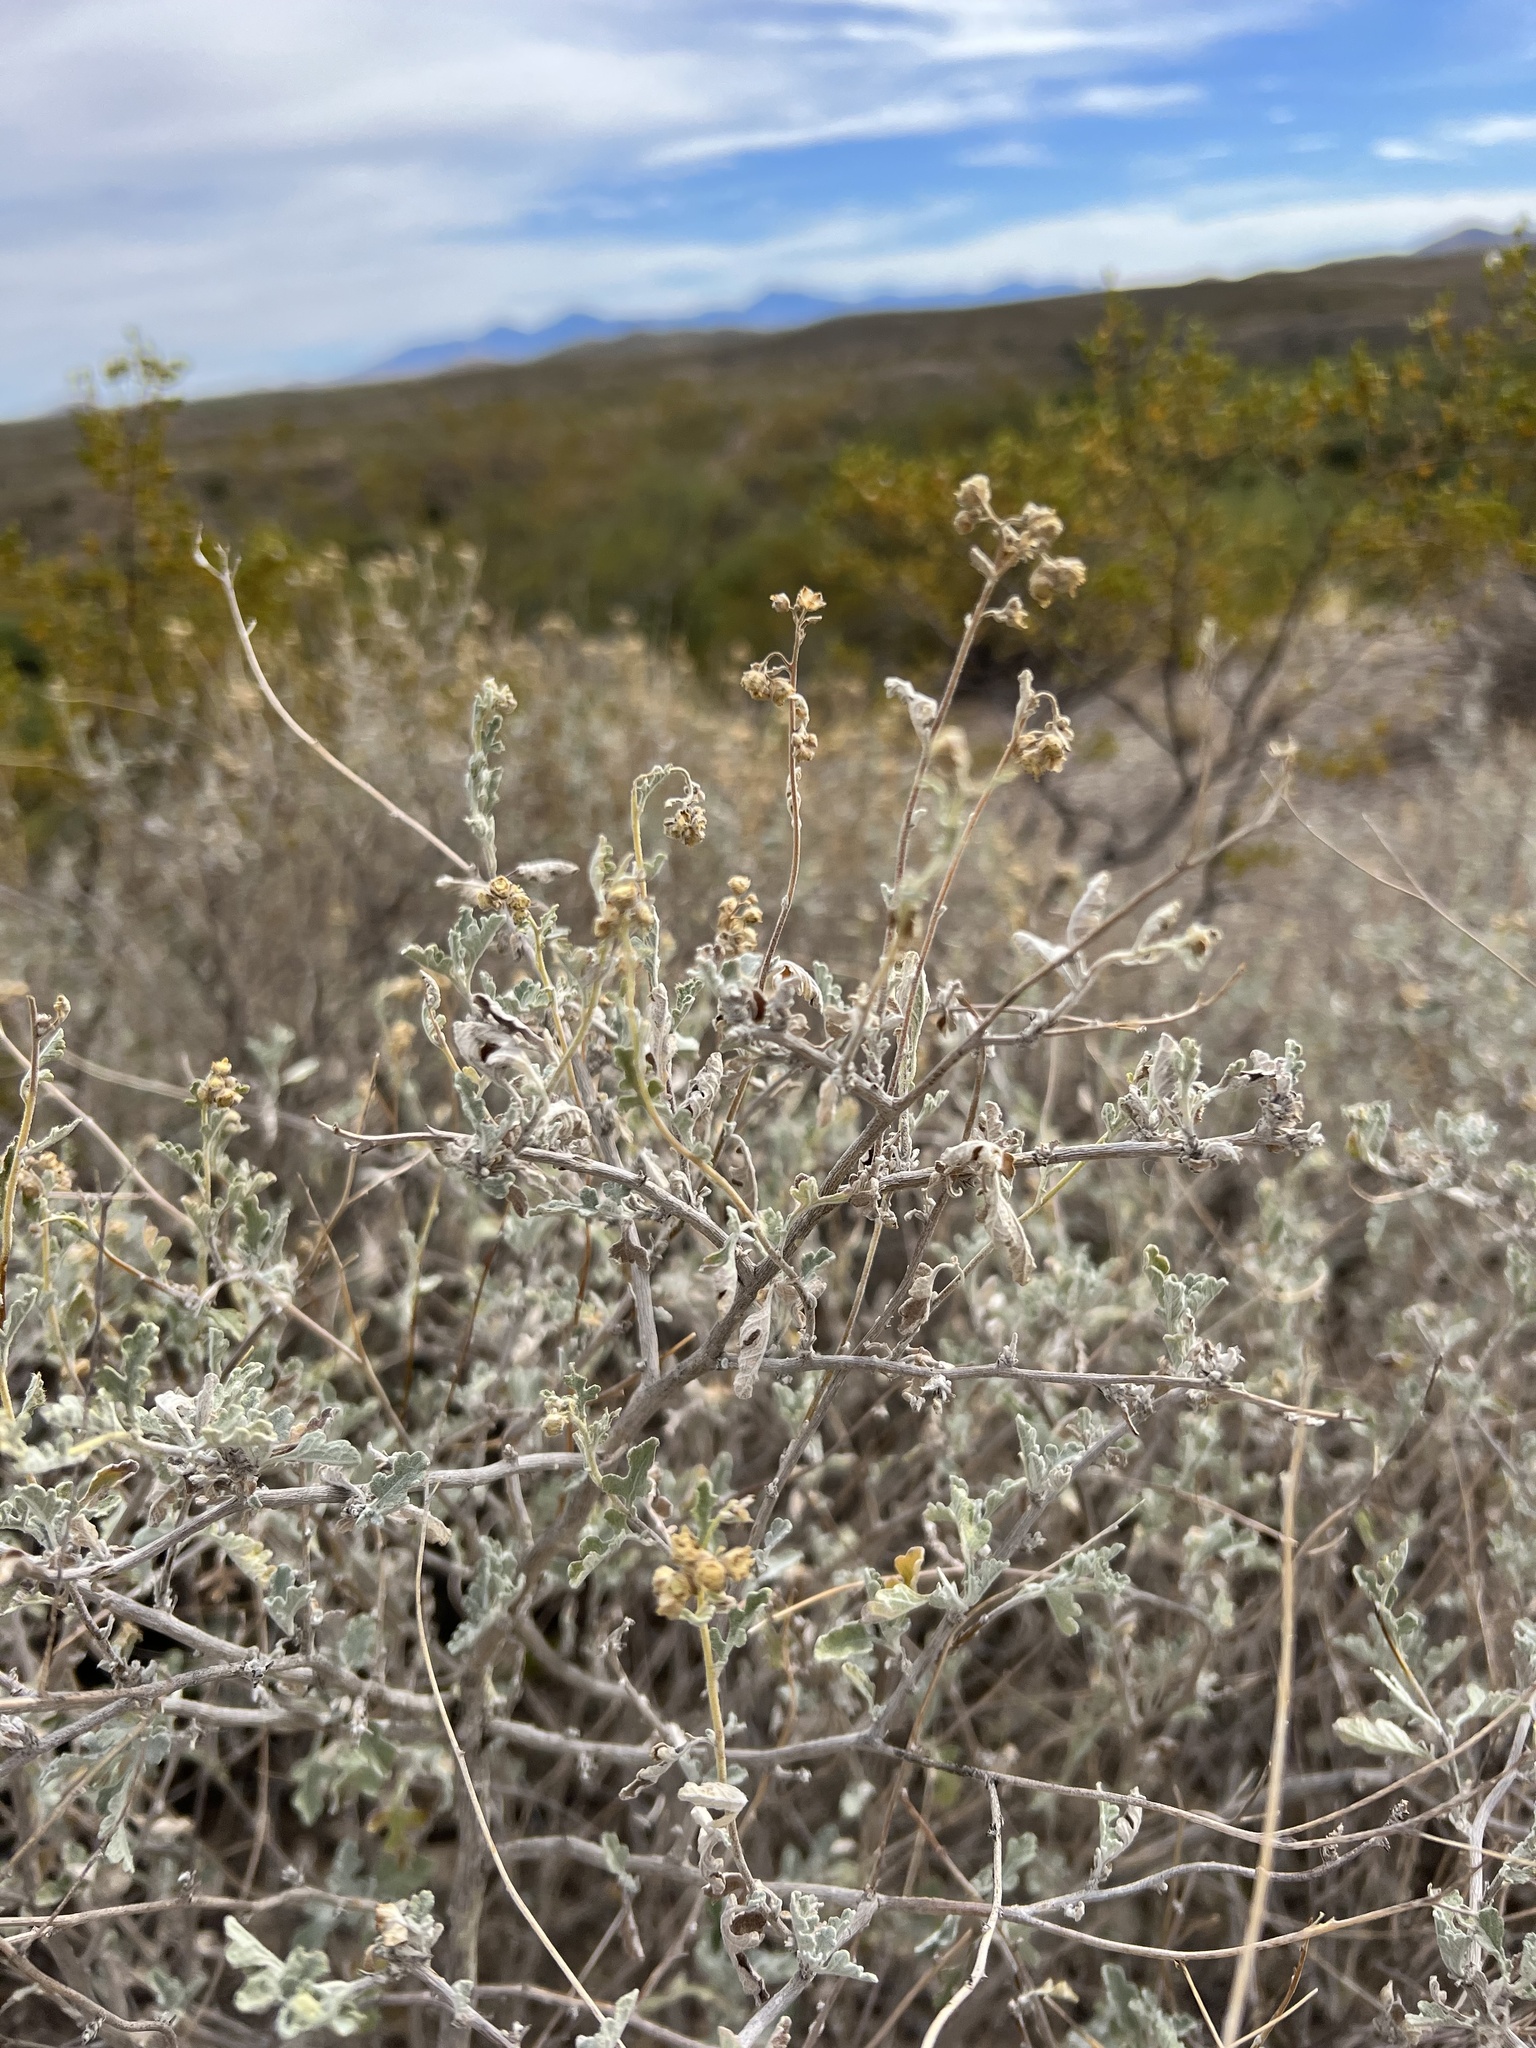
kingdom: Plantae
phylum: Tracheophyta
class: Magnoliopsida
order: Asterales
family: Asteraceae
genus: Parthenium
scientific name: Parthenium incanum
